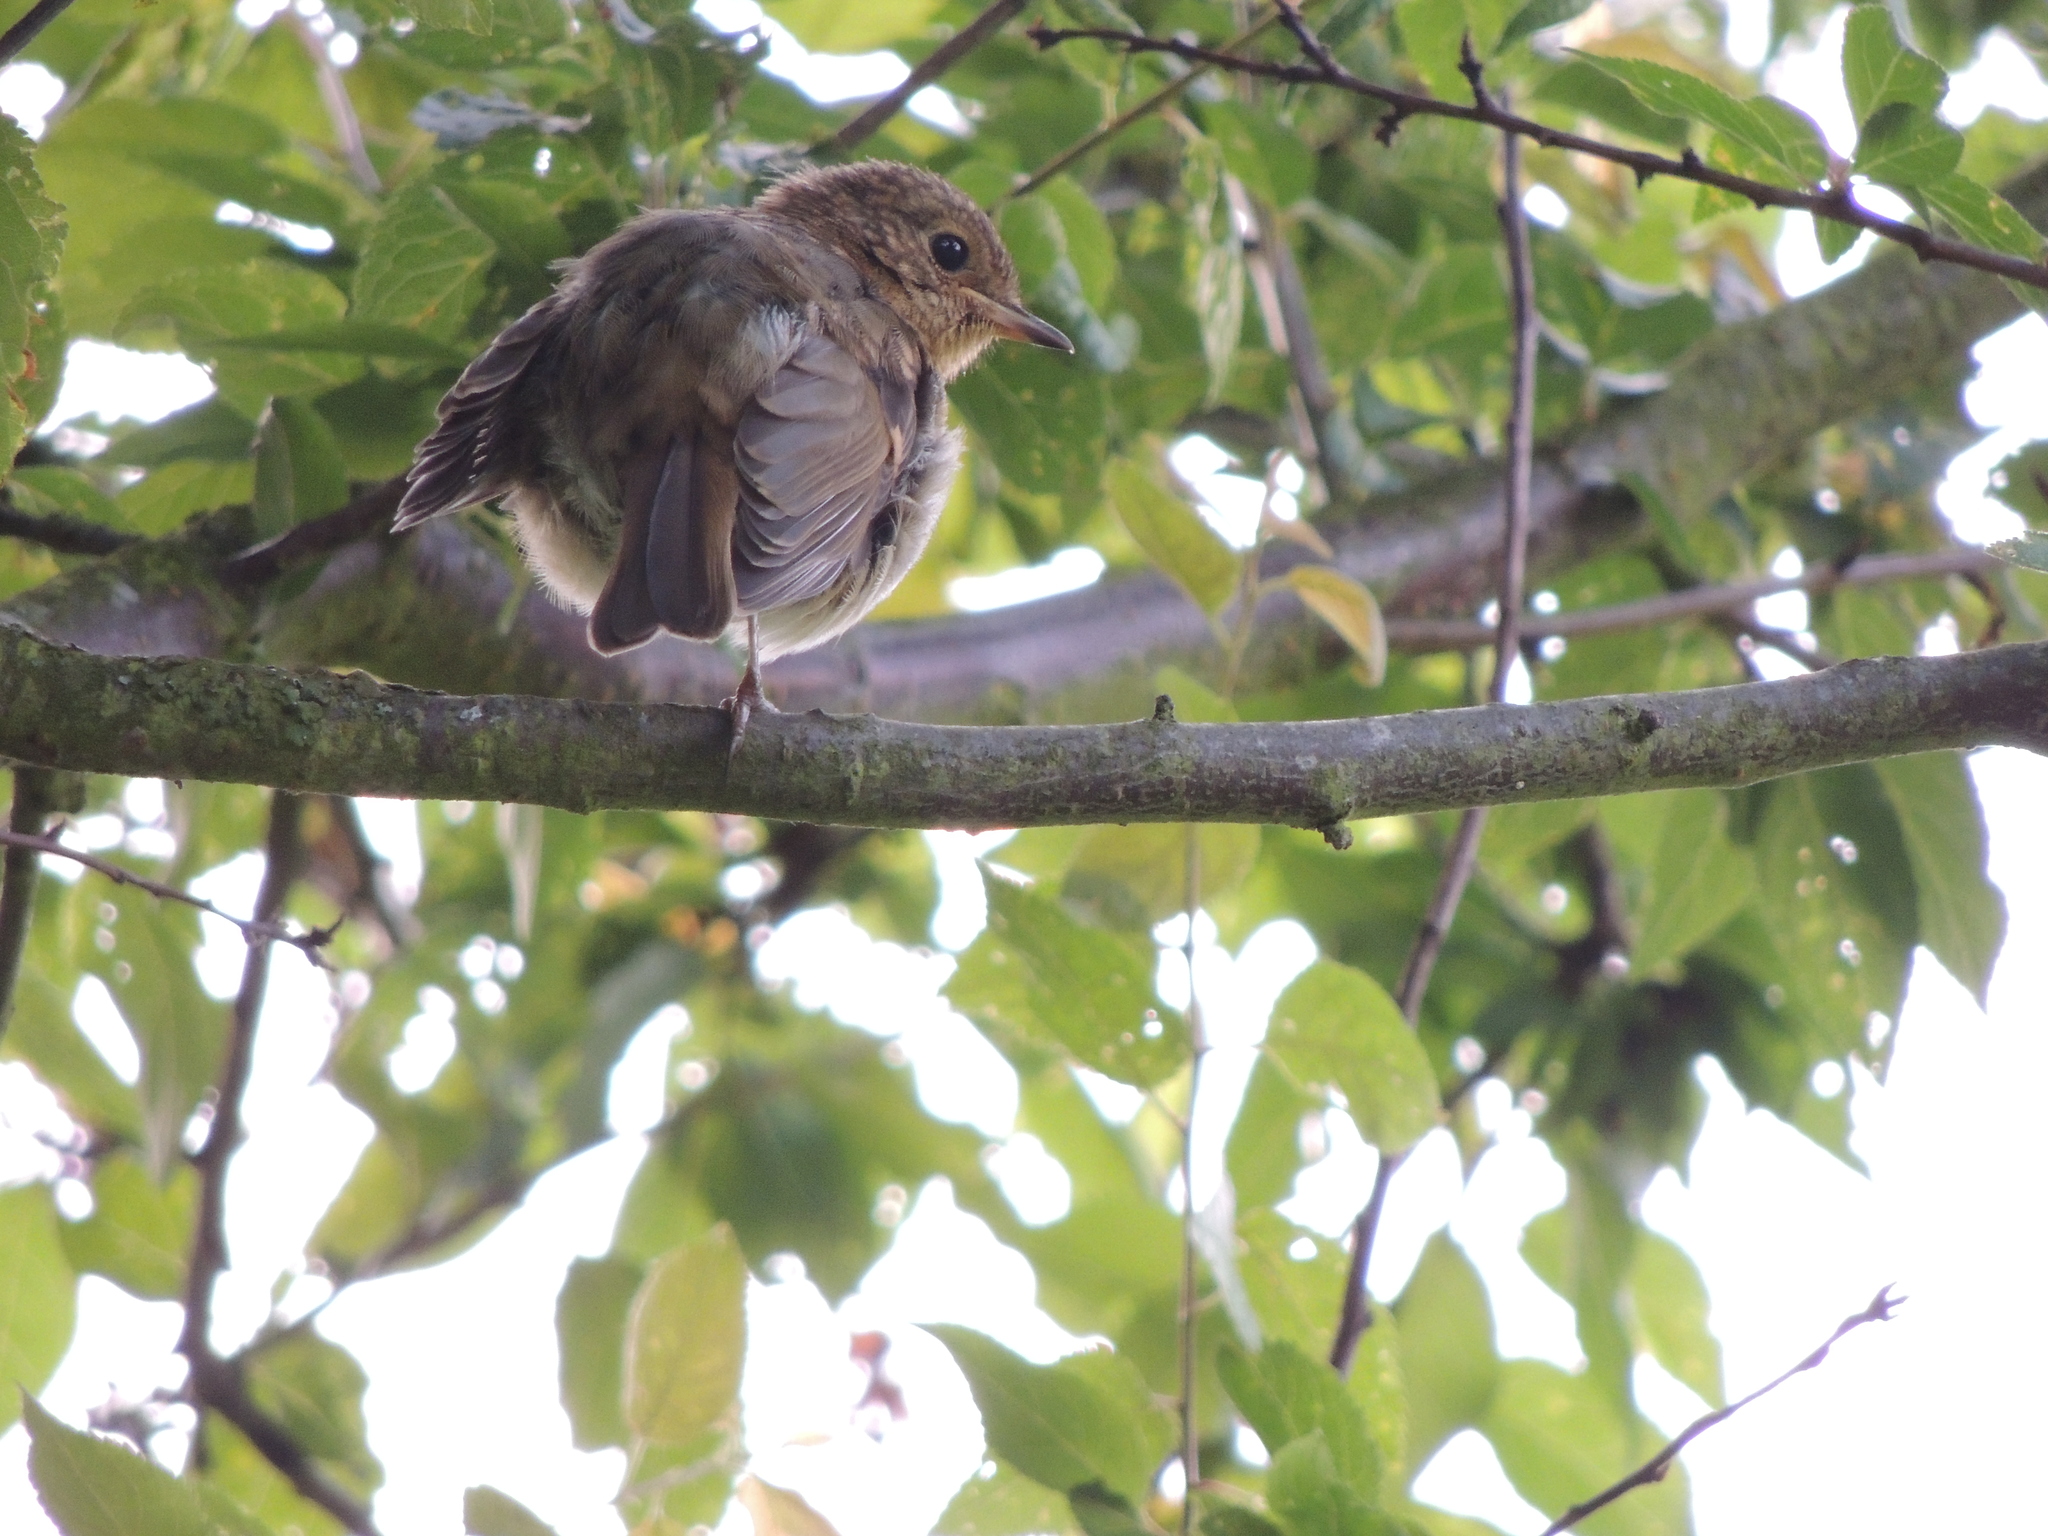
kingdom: Animalia
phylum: Chordata
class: Aves
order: Passeriformes
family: Muscicapidae
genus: Erithacus
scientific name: Erithacus rubecula
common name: European robin
